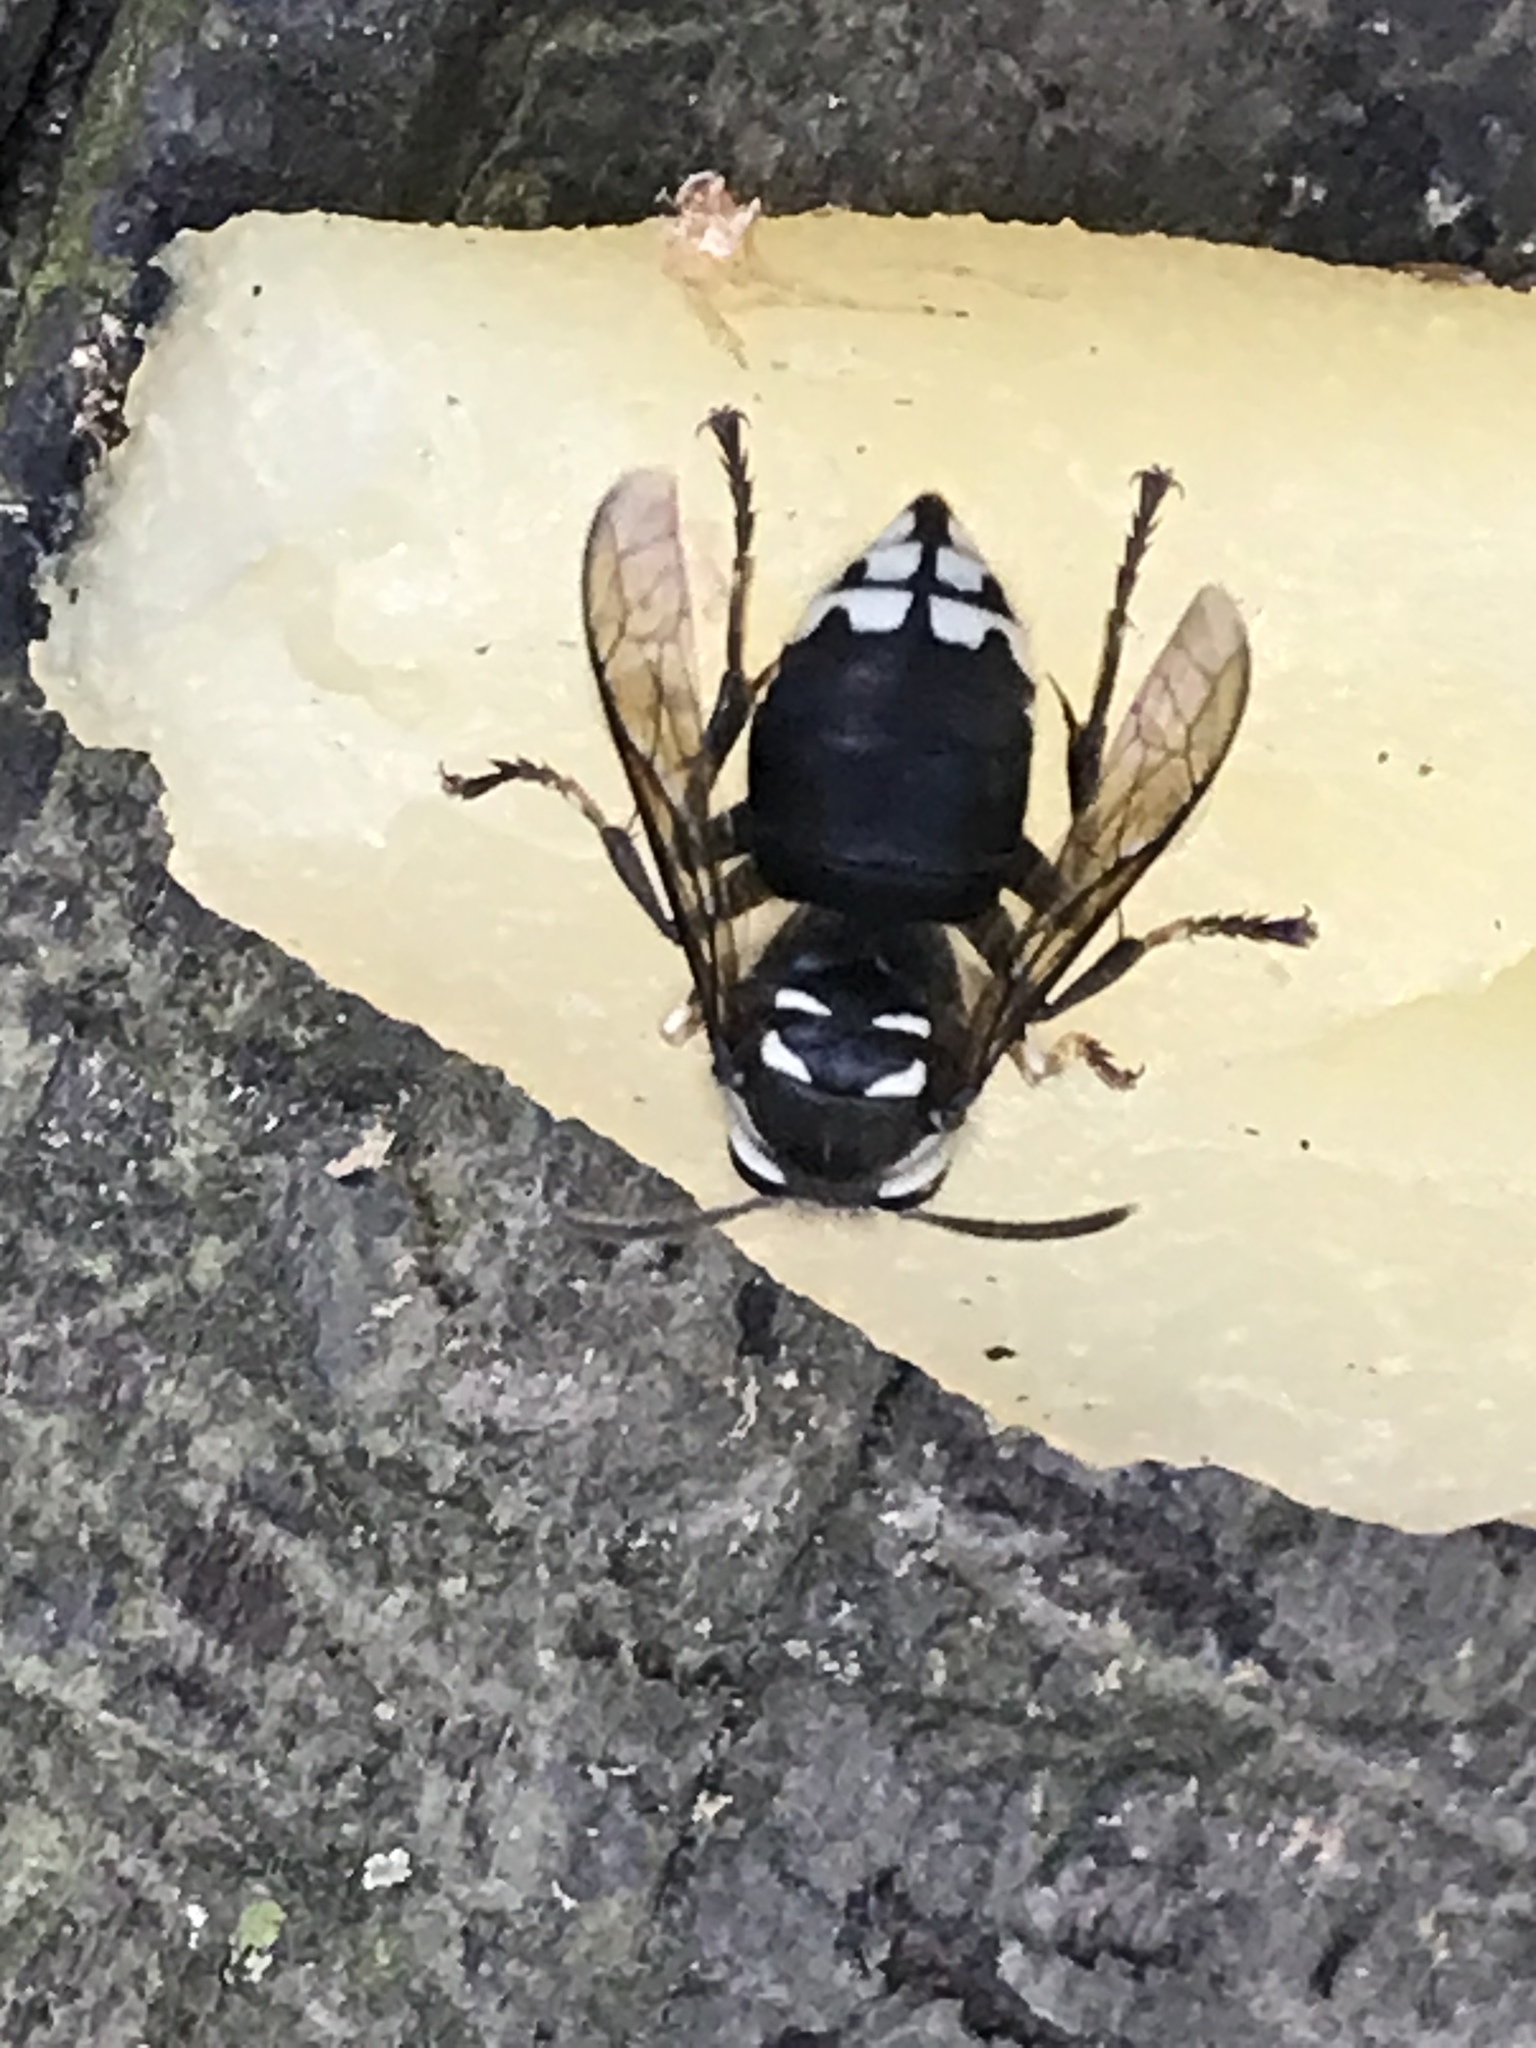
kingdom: Animalia
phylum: Arthropoda
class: Insecta
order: Hymenoptera
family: Vespidae
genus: Dolichovespula
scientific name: Dolichovespula maculata
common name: Bald-faced hornet
